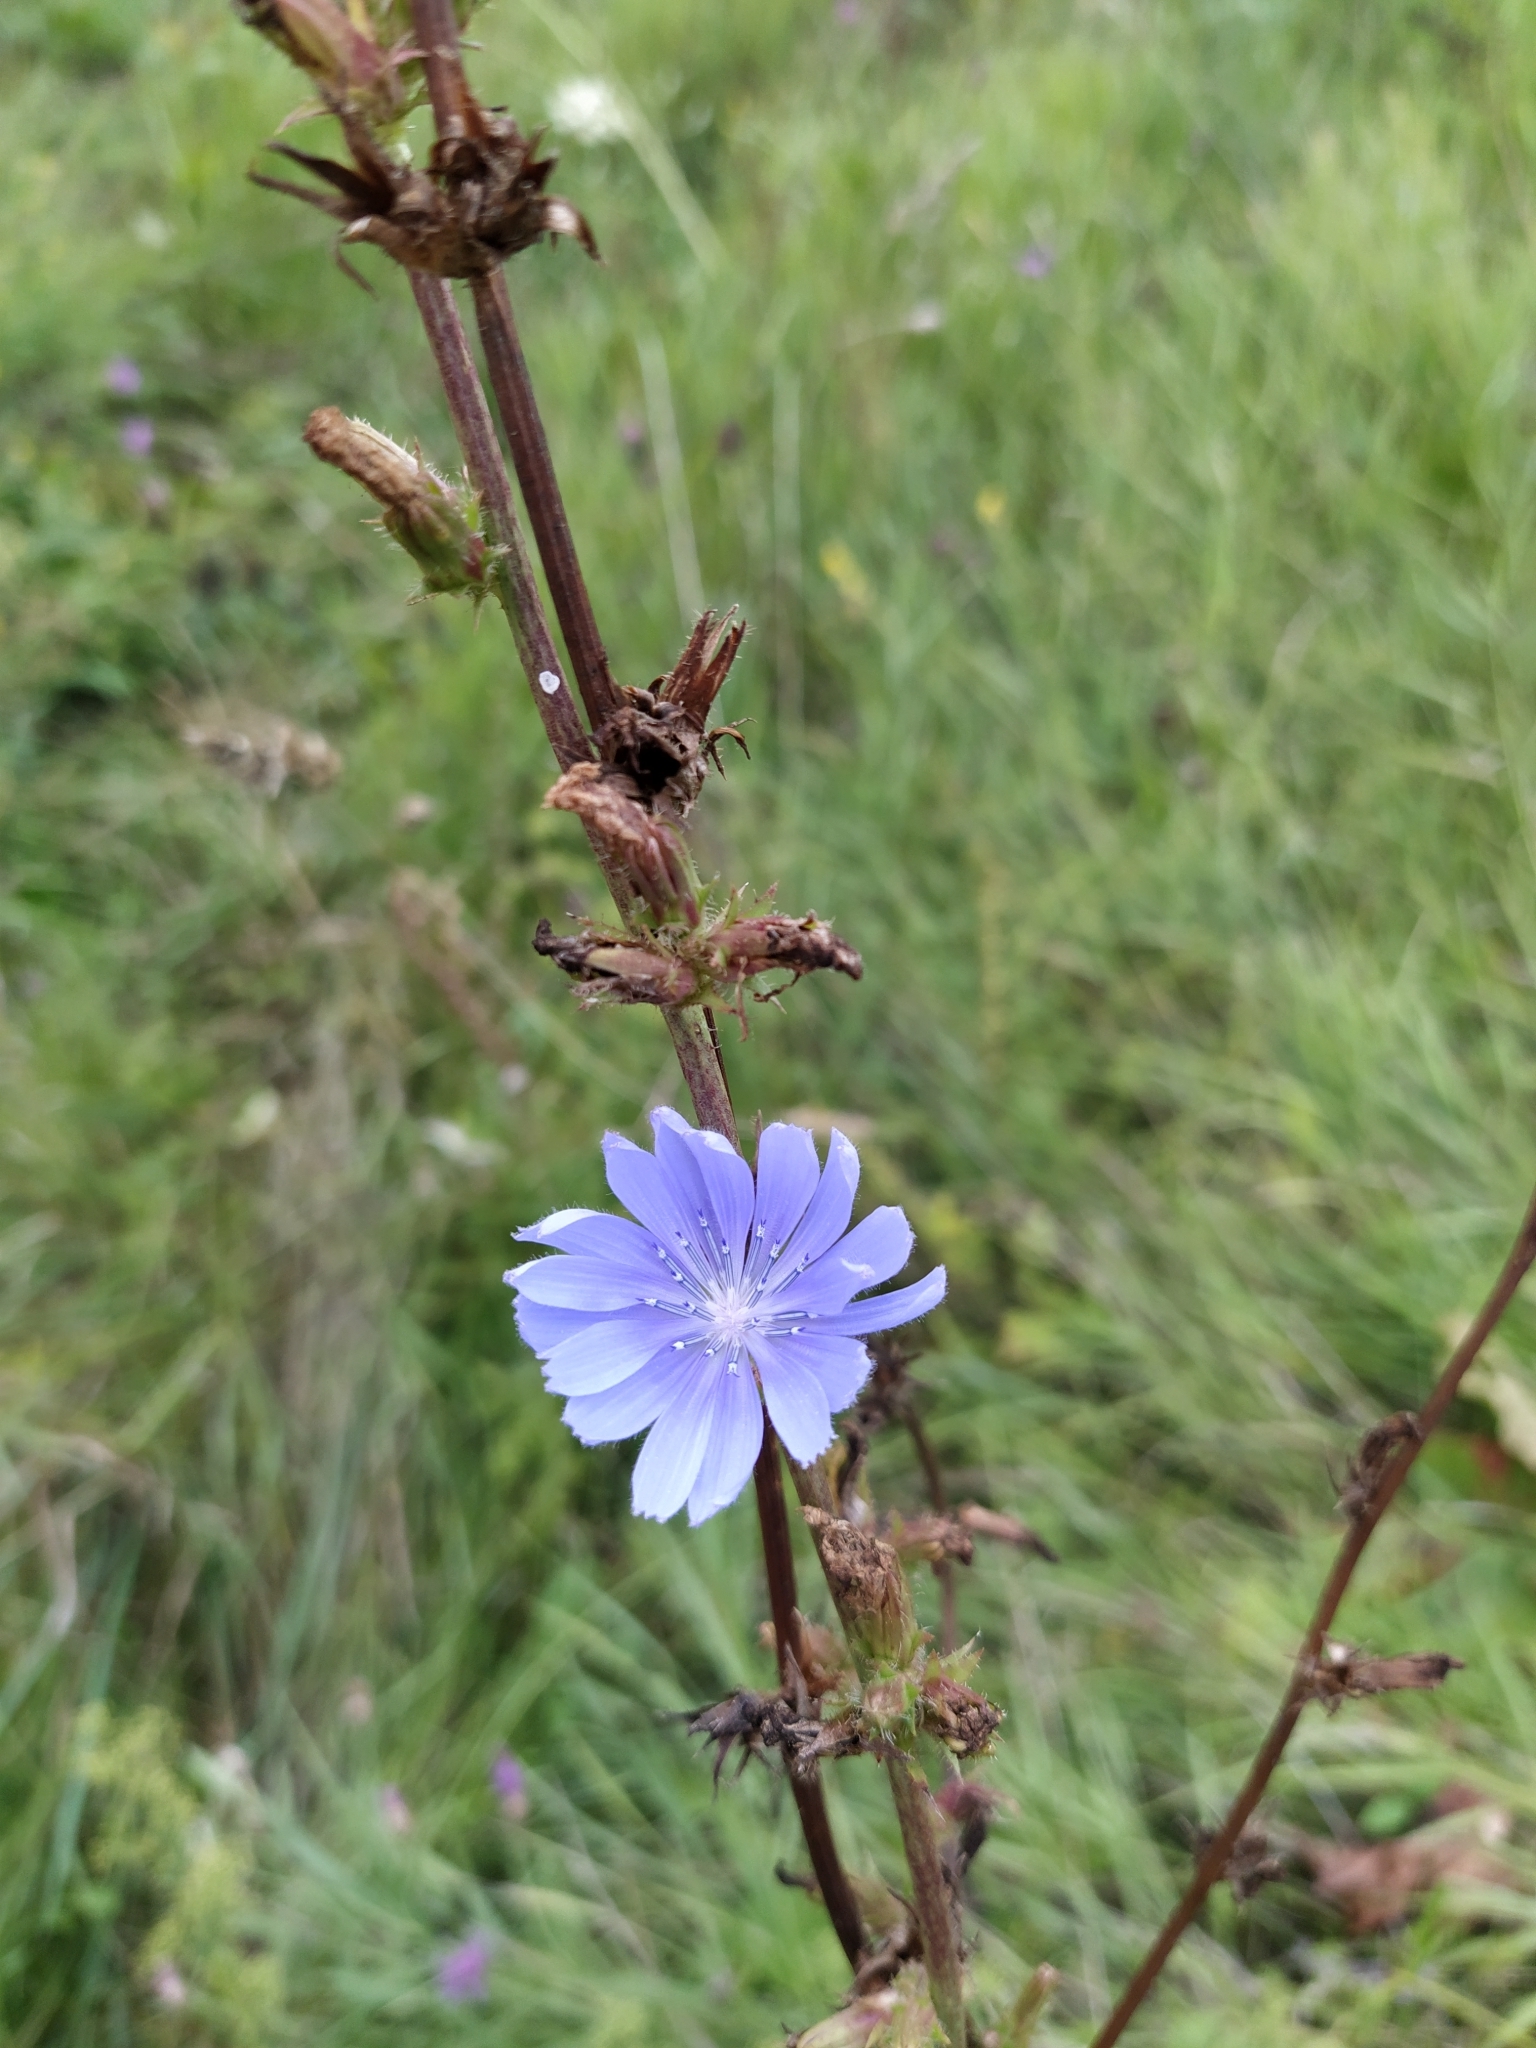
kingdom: Plantae
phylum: Tracheophyta
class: Magnoliopsida
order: Asterales
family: Asteraceae
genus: Cichorium
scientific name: Cichorium intybus
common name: Chicory
